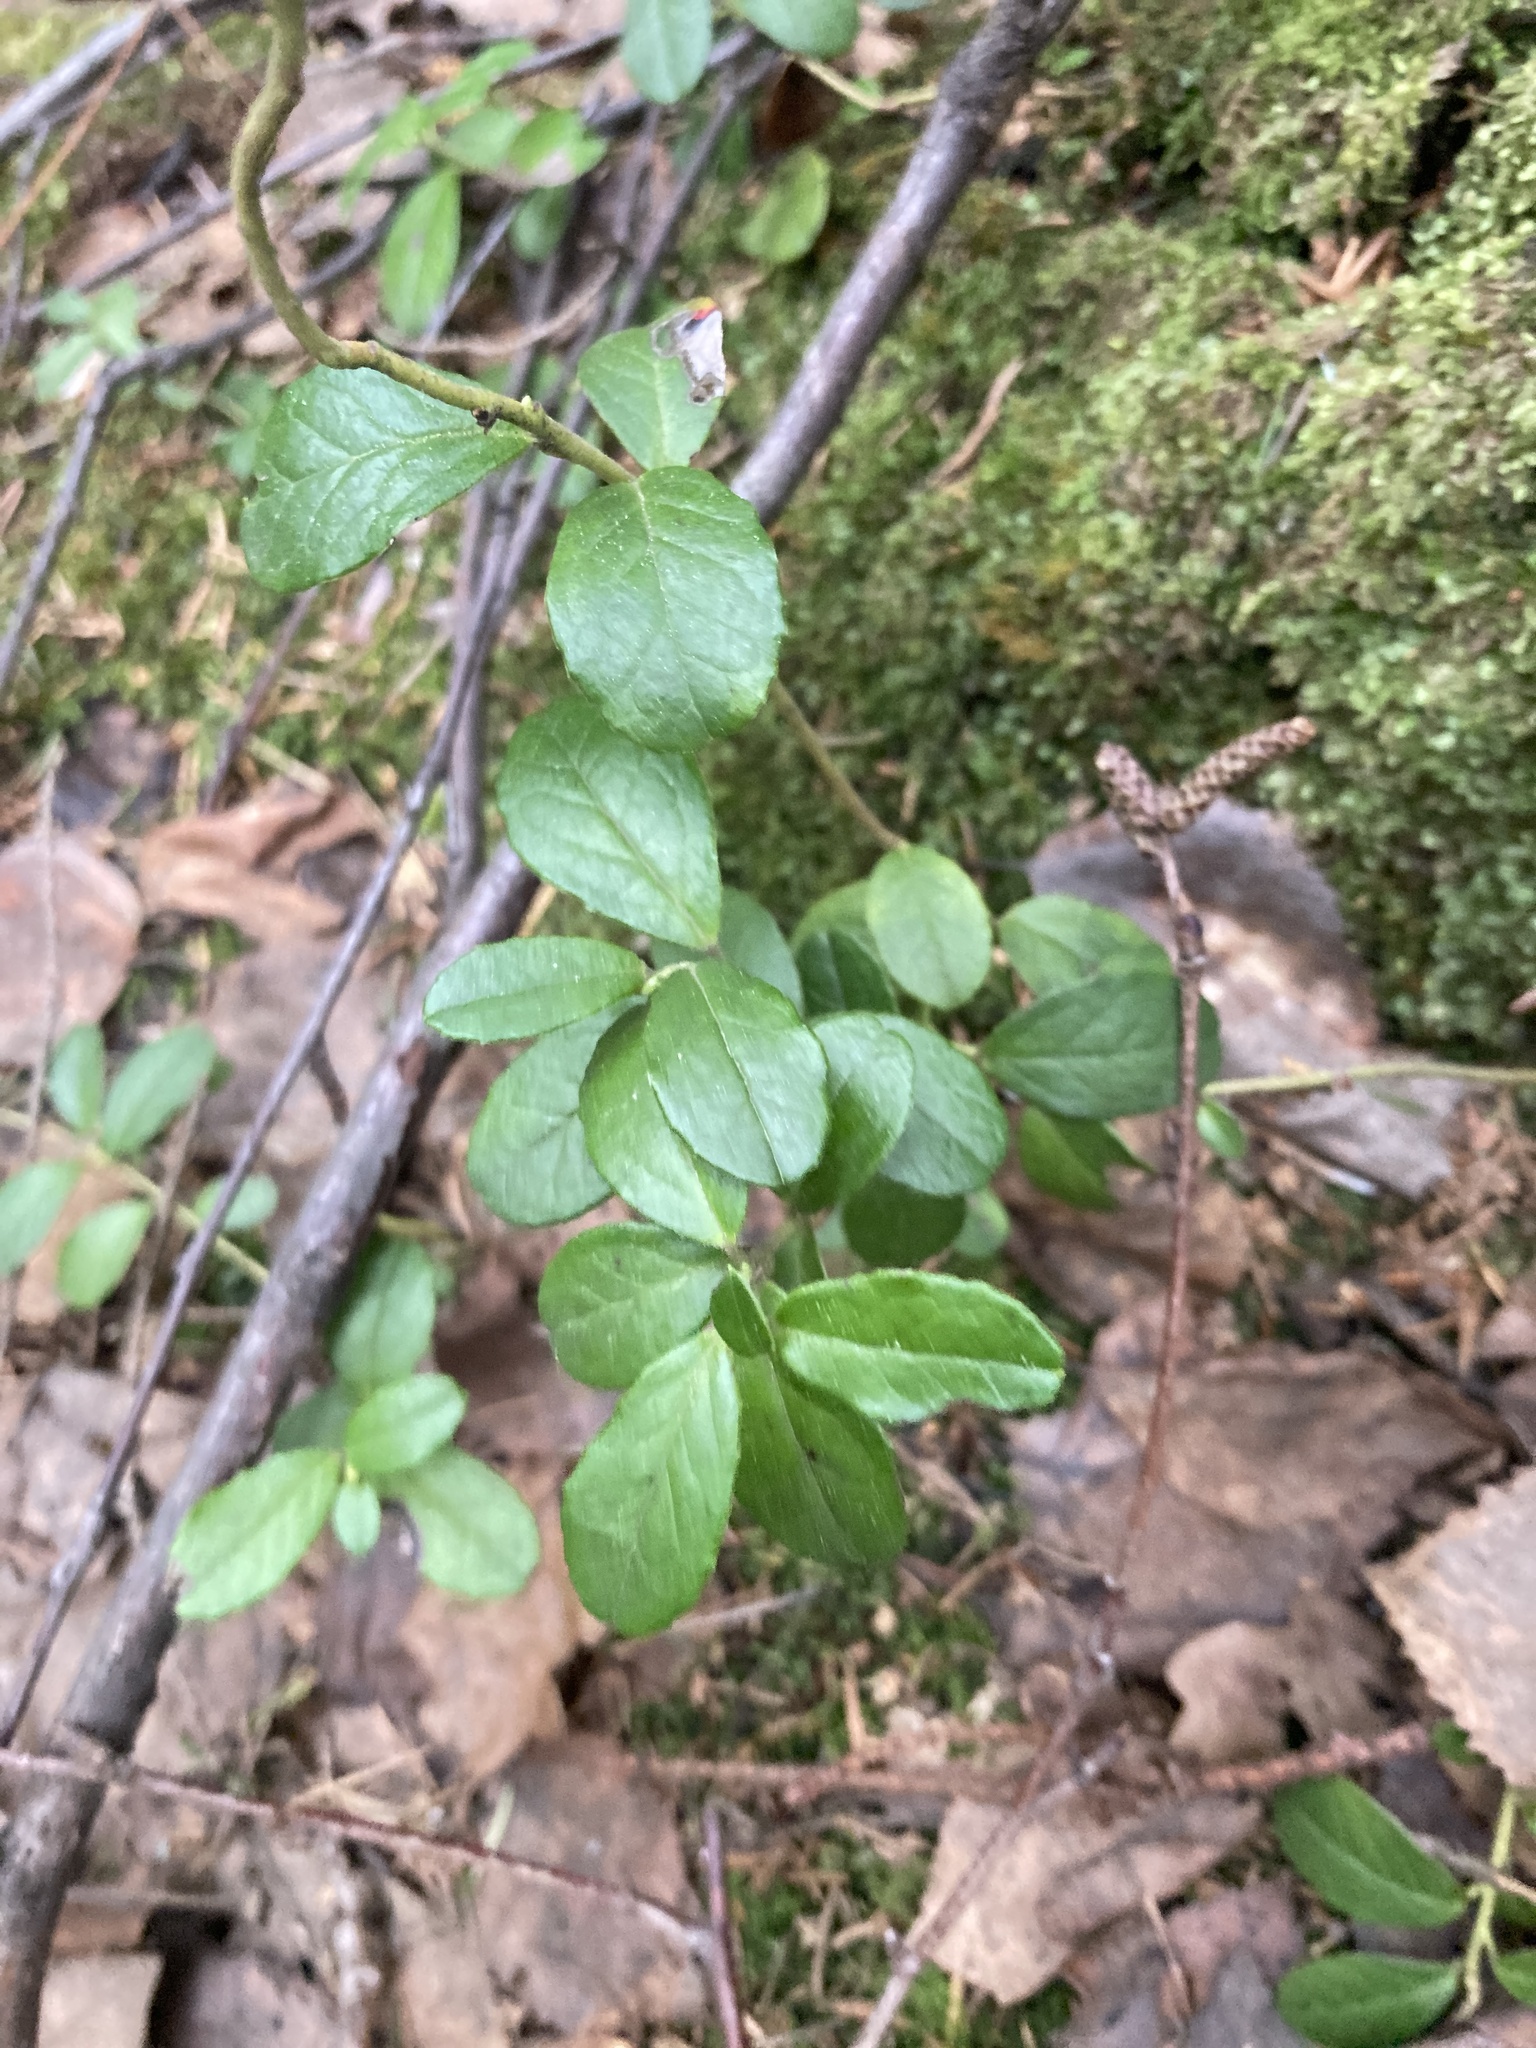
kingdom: Plantae
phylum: Tracheophyta
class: Magnoliopsida
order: Ericales
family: Ericaceae
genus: Vaccinium
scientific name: Vaccinium vitis-idaea
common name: Cowberry
